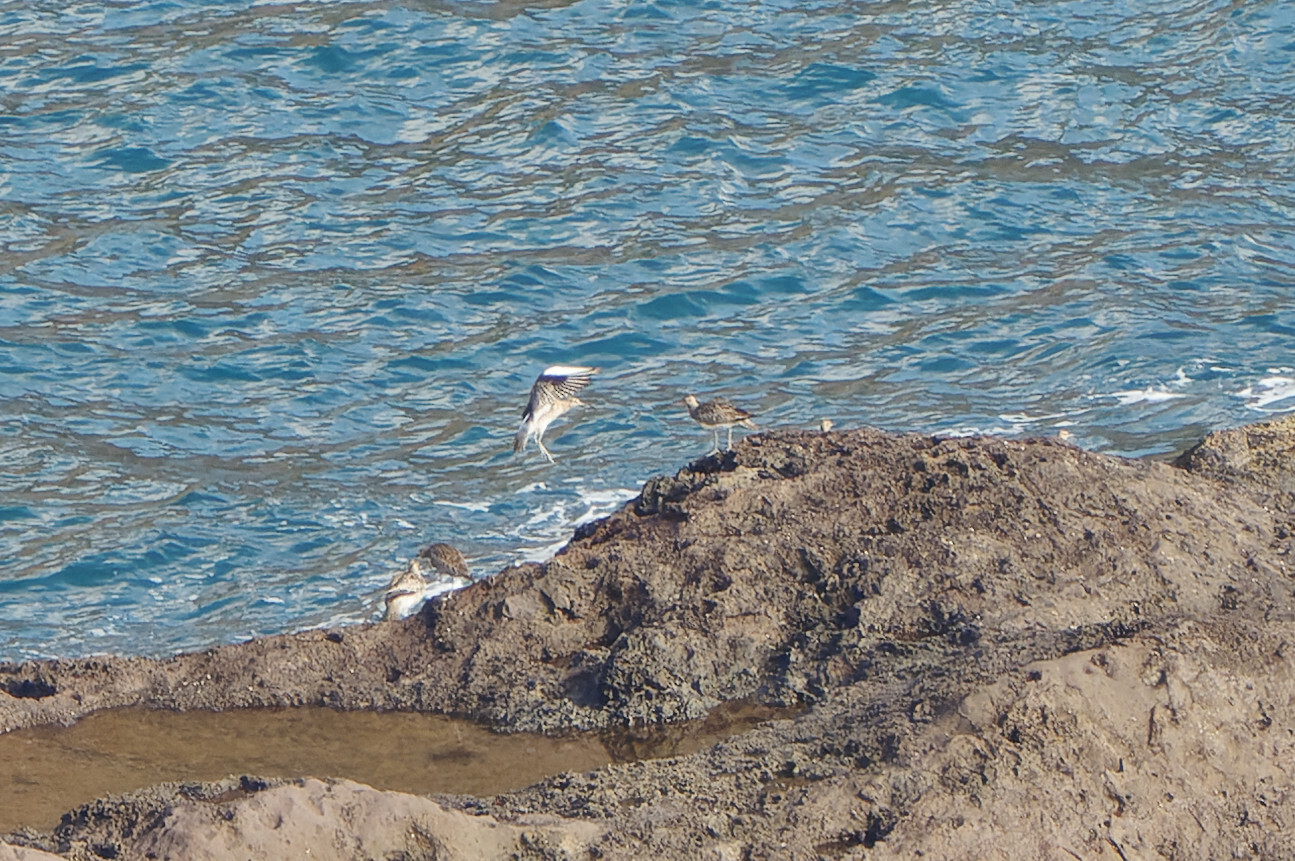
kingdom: Animalia
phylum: Chordata
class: Aves
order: Charadriiformes
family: Scolopacidae
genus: Numenius
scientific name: Numenius phaeopus
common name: Whimbrel
